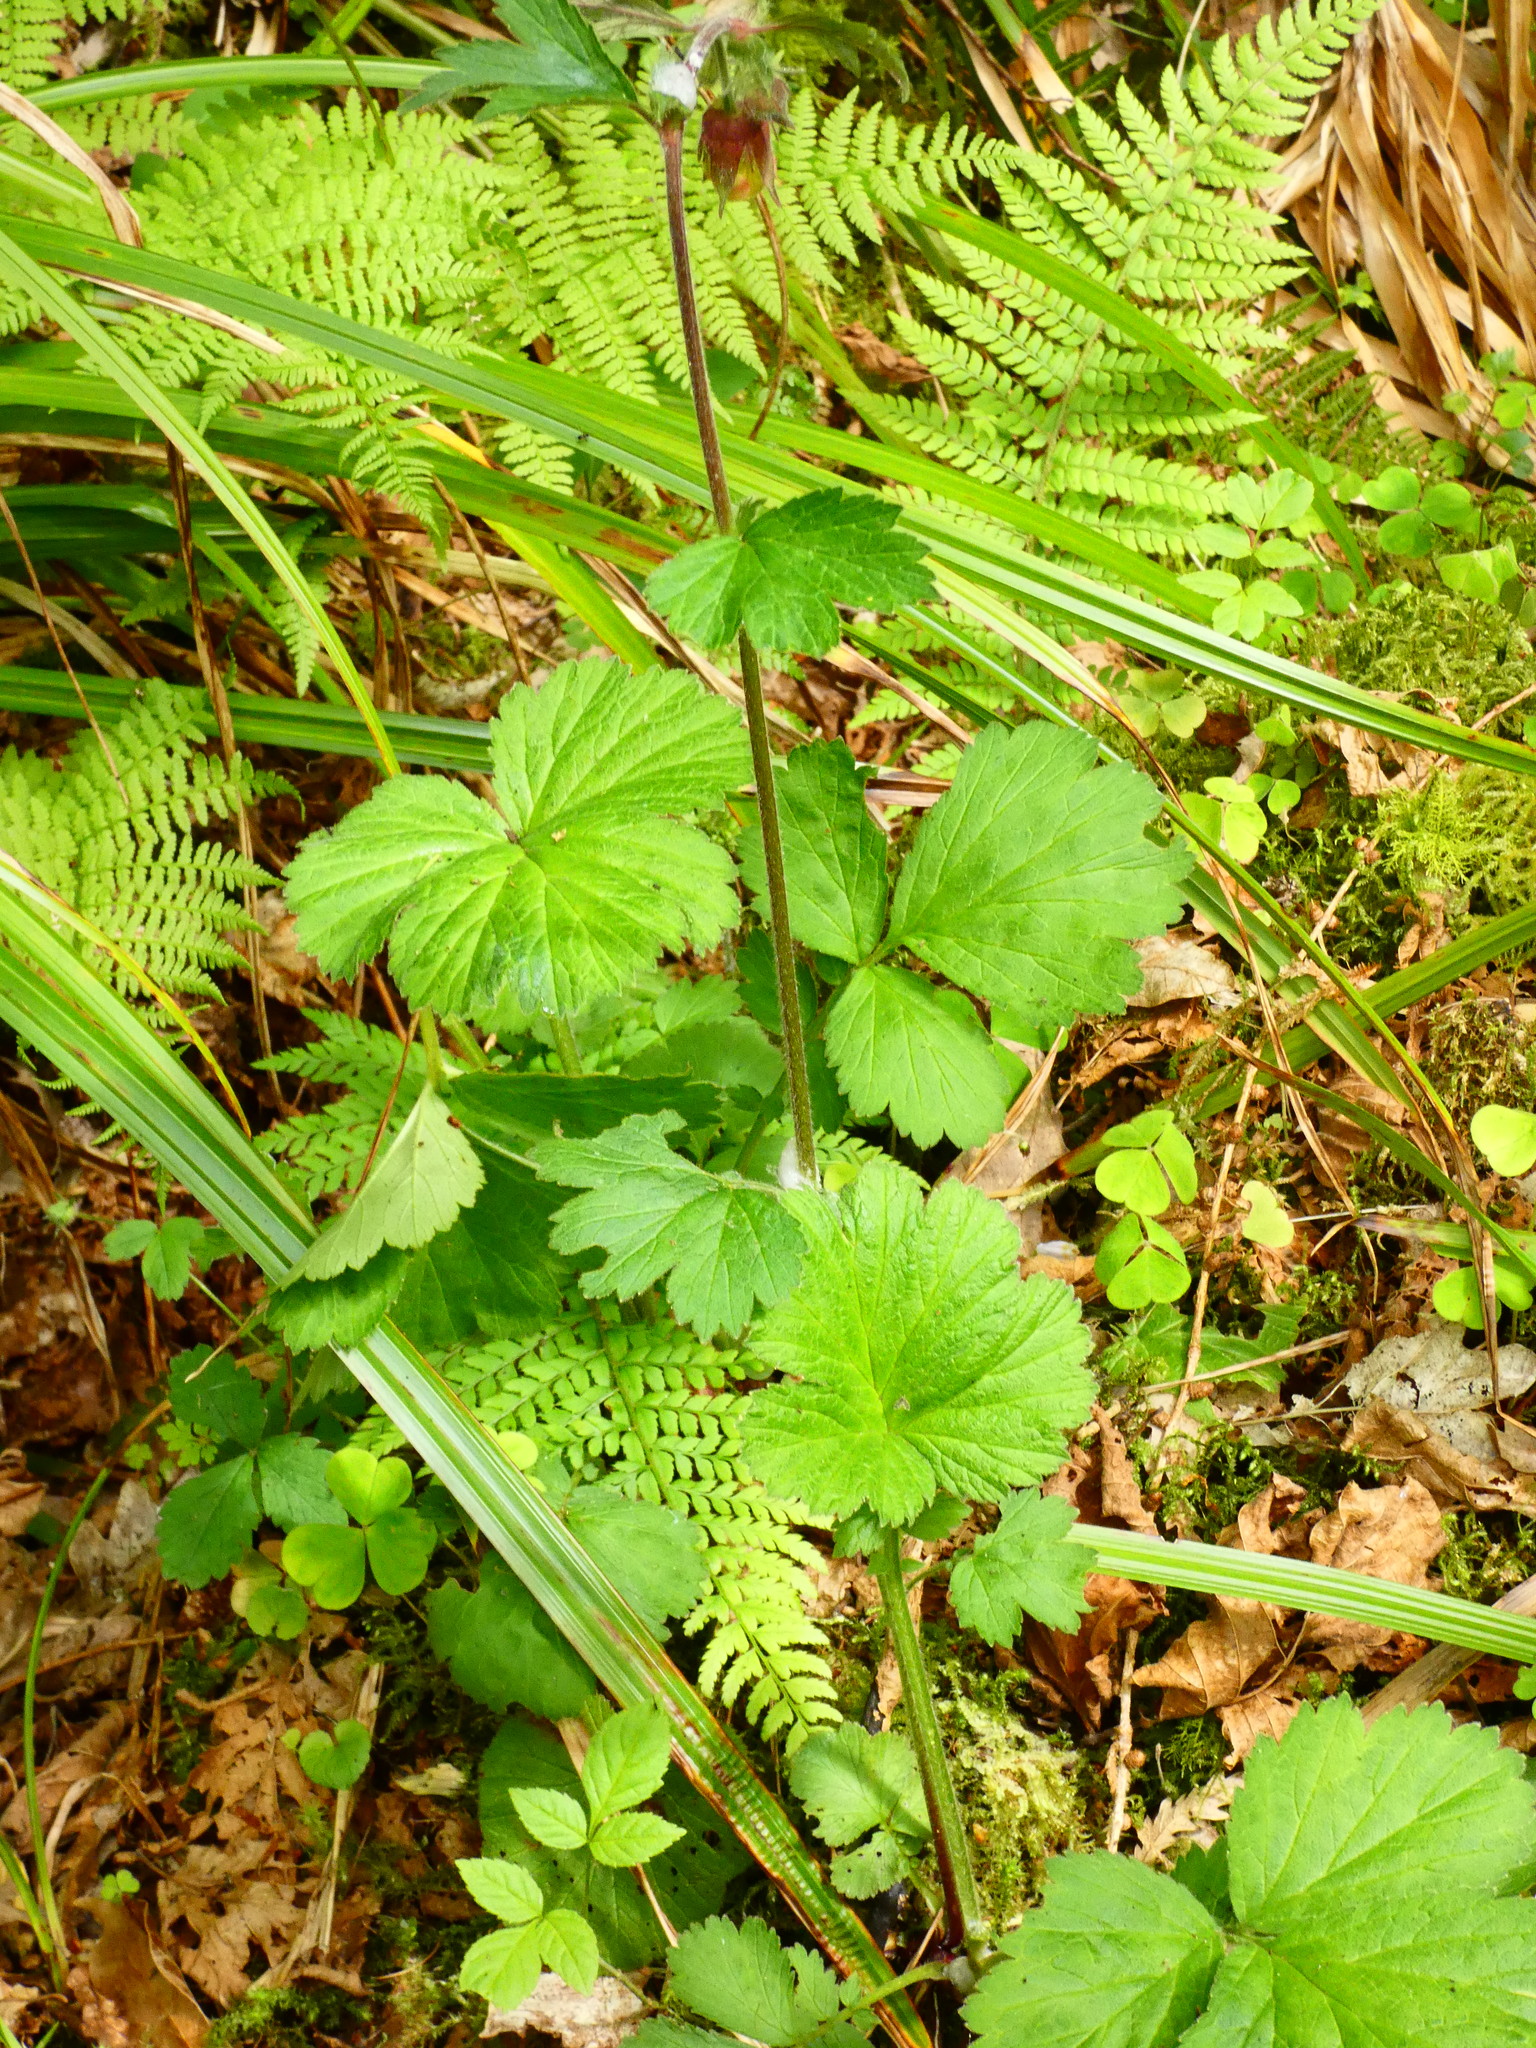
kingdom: Plantae
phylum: Tracheophyta
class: Magnoliopsida
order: Rosales
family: Rosaceae
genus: Geum
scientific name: Geum rivale
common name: Water avens
